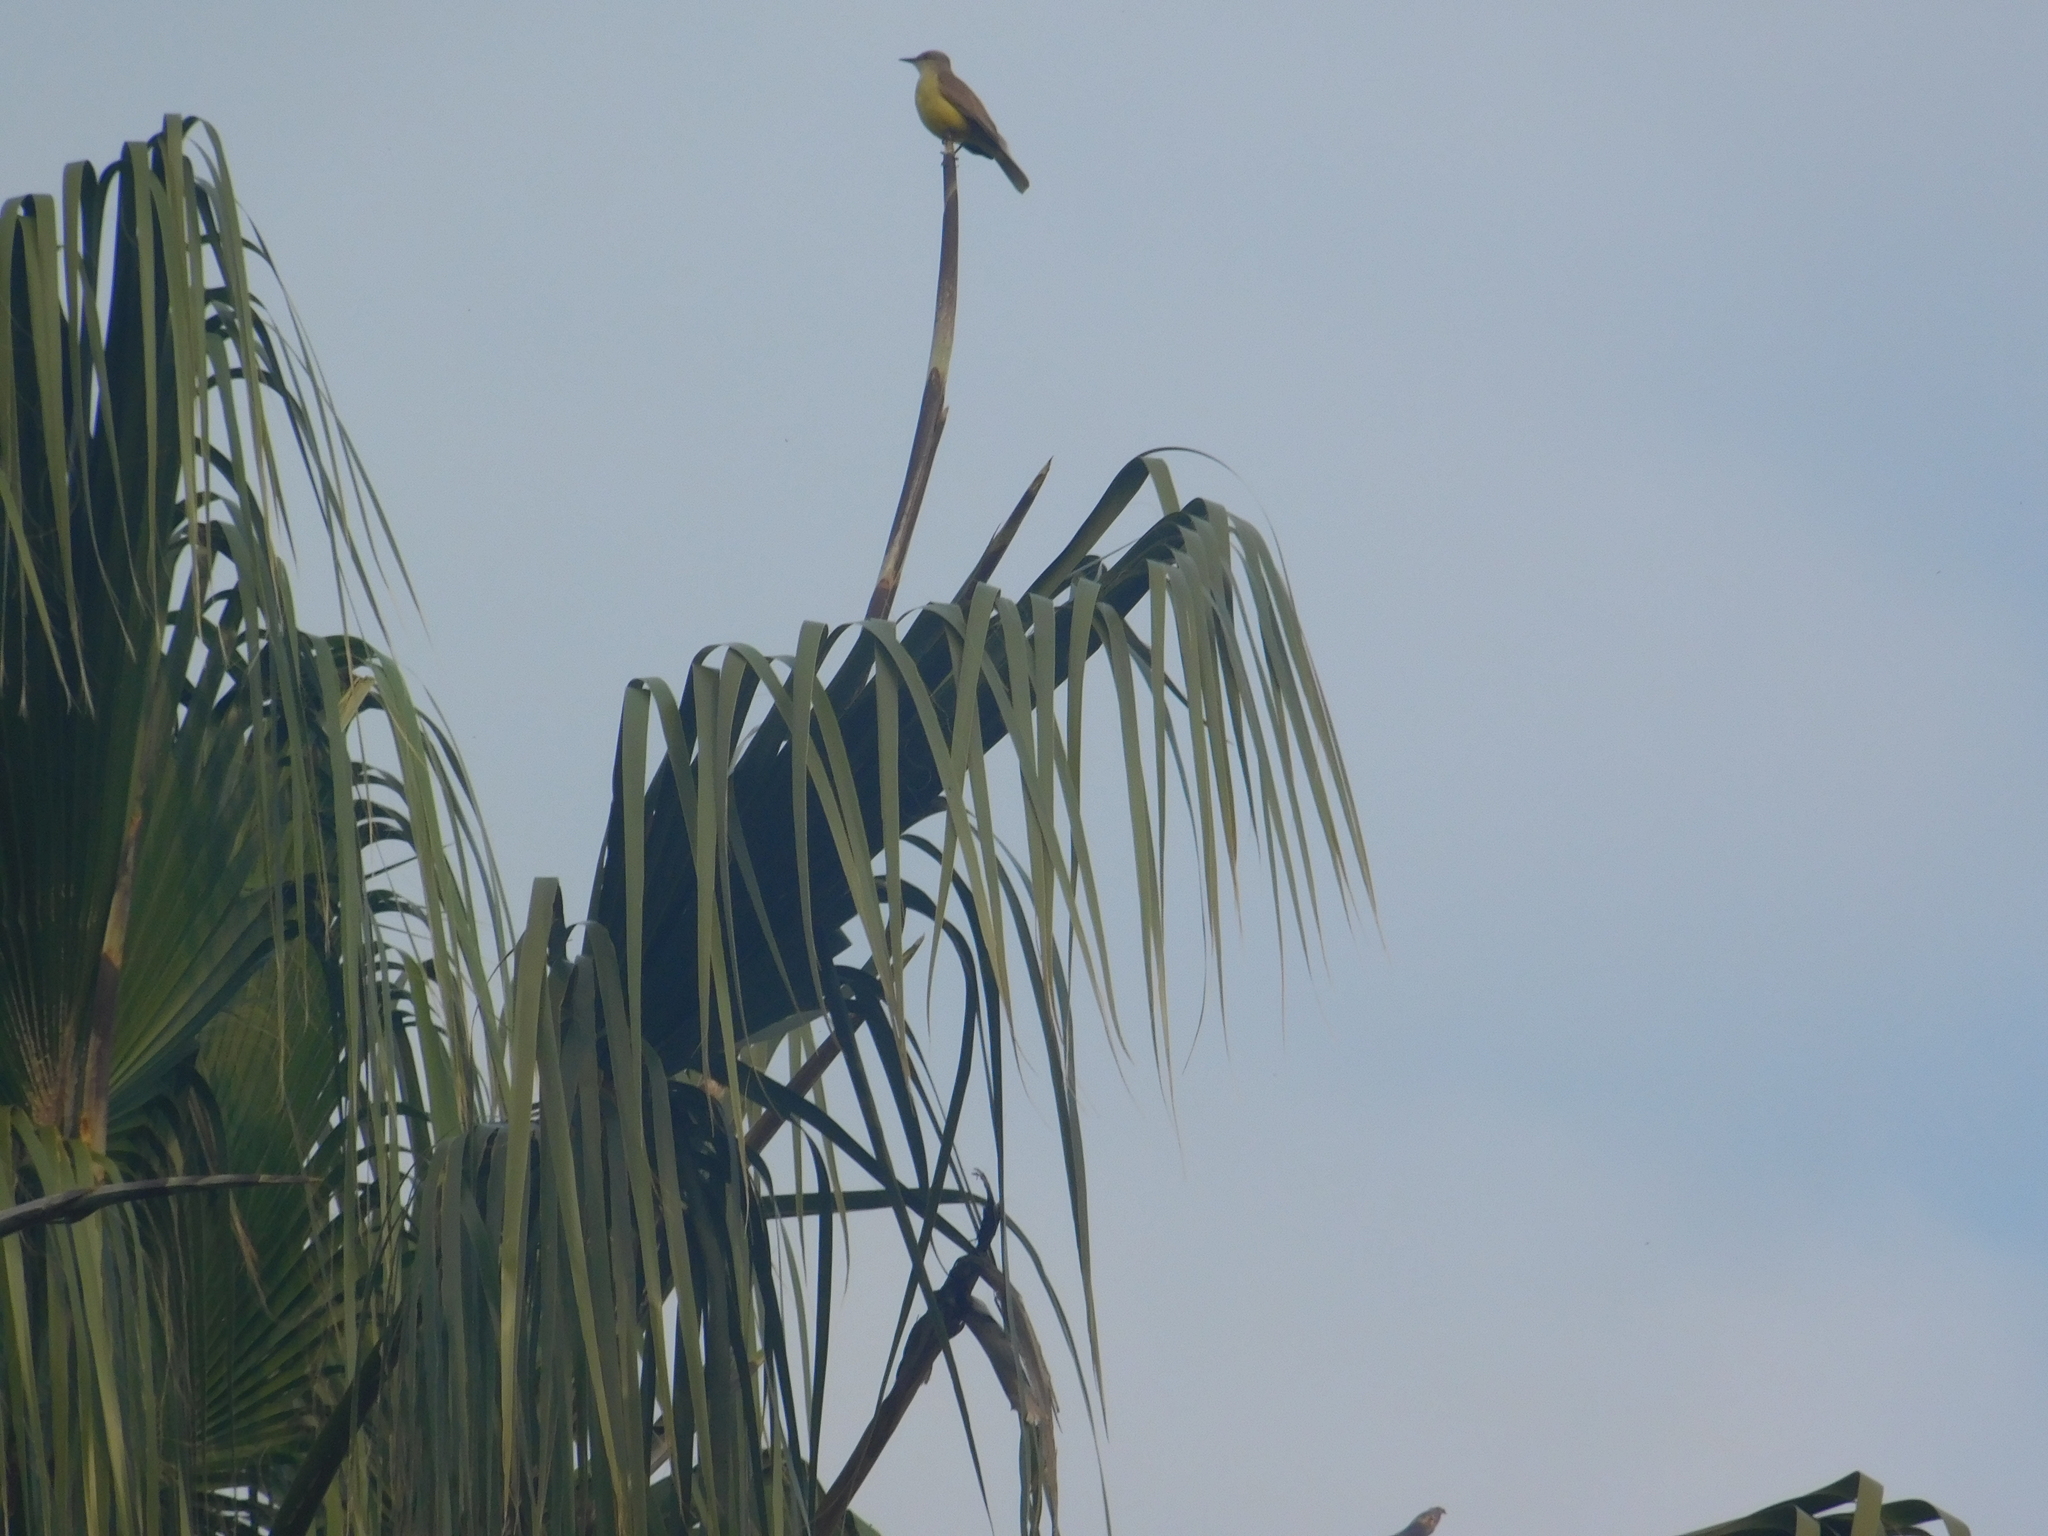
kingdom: Animalia
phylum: Chordata
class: Aves
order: Passeriformes
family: Tyrannidae
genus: Machetornis
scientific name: Machetornis rixosa
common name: Cattle tyrant
